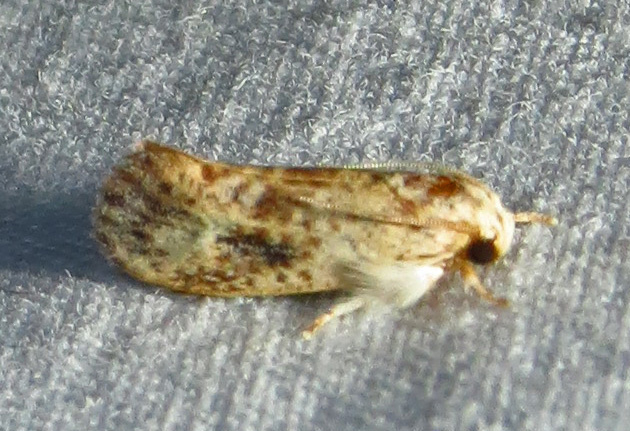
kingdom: Animalia
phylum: Arthropoda
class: Insecta
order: Lepidoptera
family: Tineidae
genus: Acrolophus
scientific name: Acrolophus mycetophagus
